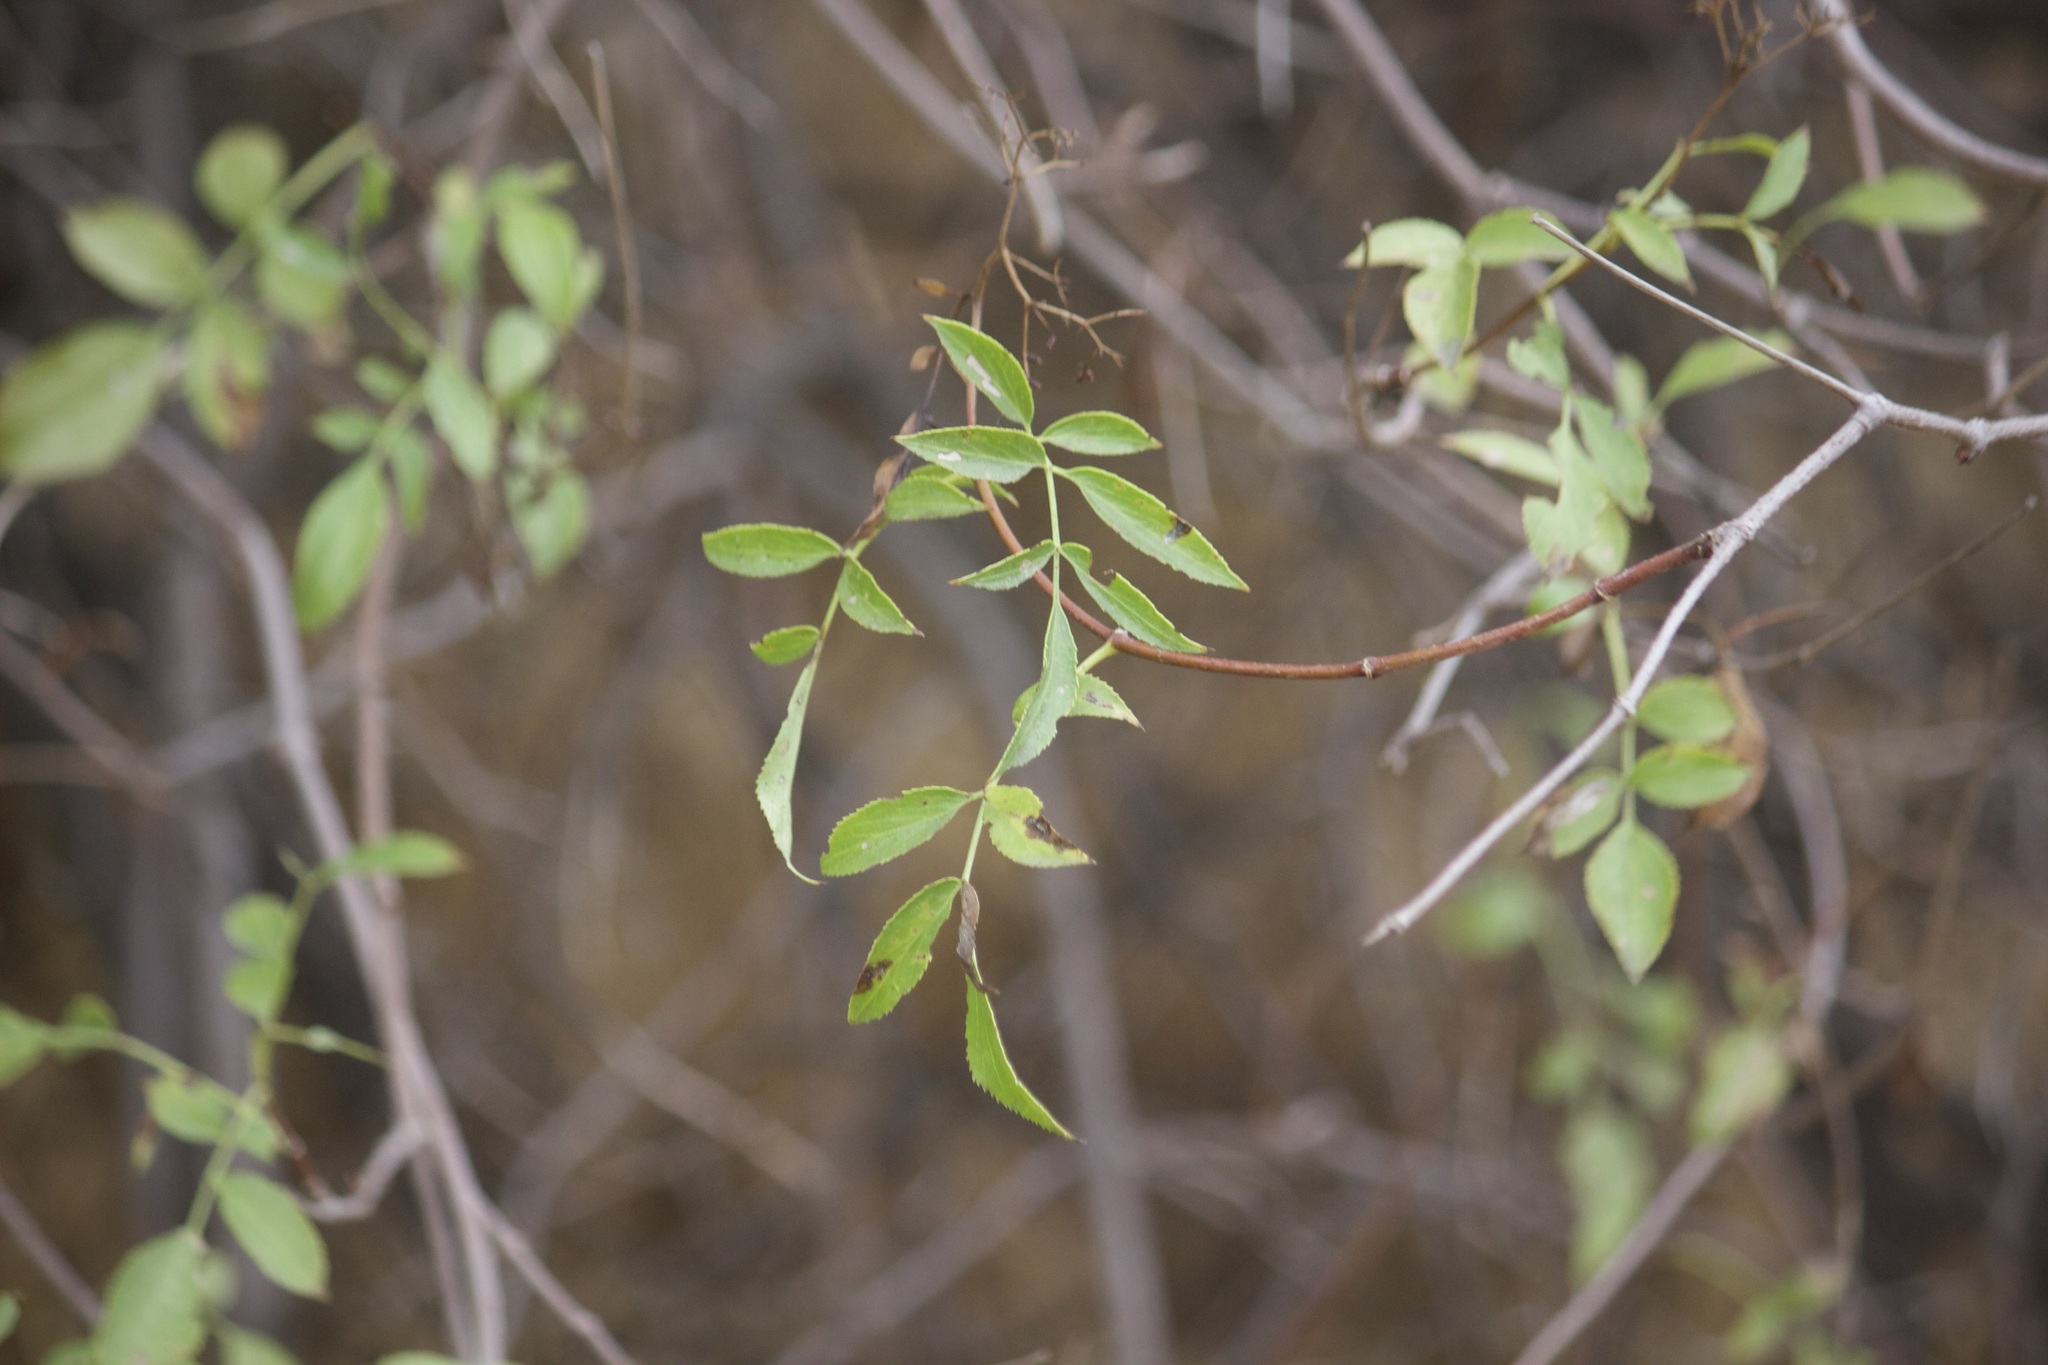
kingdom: Plantae
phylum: Tracheophyta
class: Magnoliopsida
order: Dipsacales
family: Viburnaceae
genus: Sambucus
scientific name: Sambucus cerulea
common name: Blue elder
